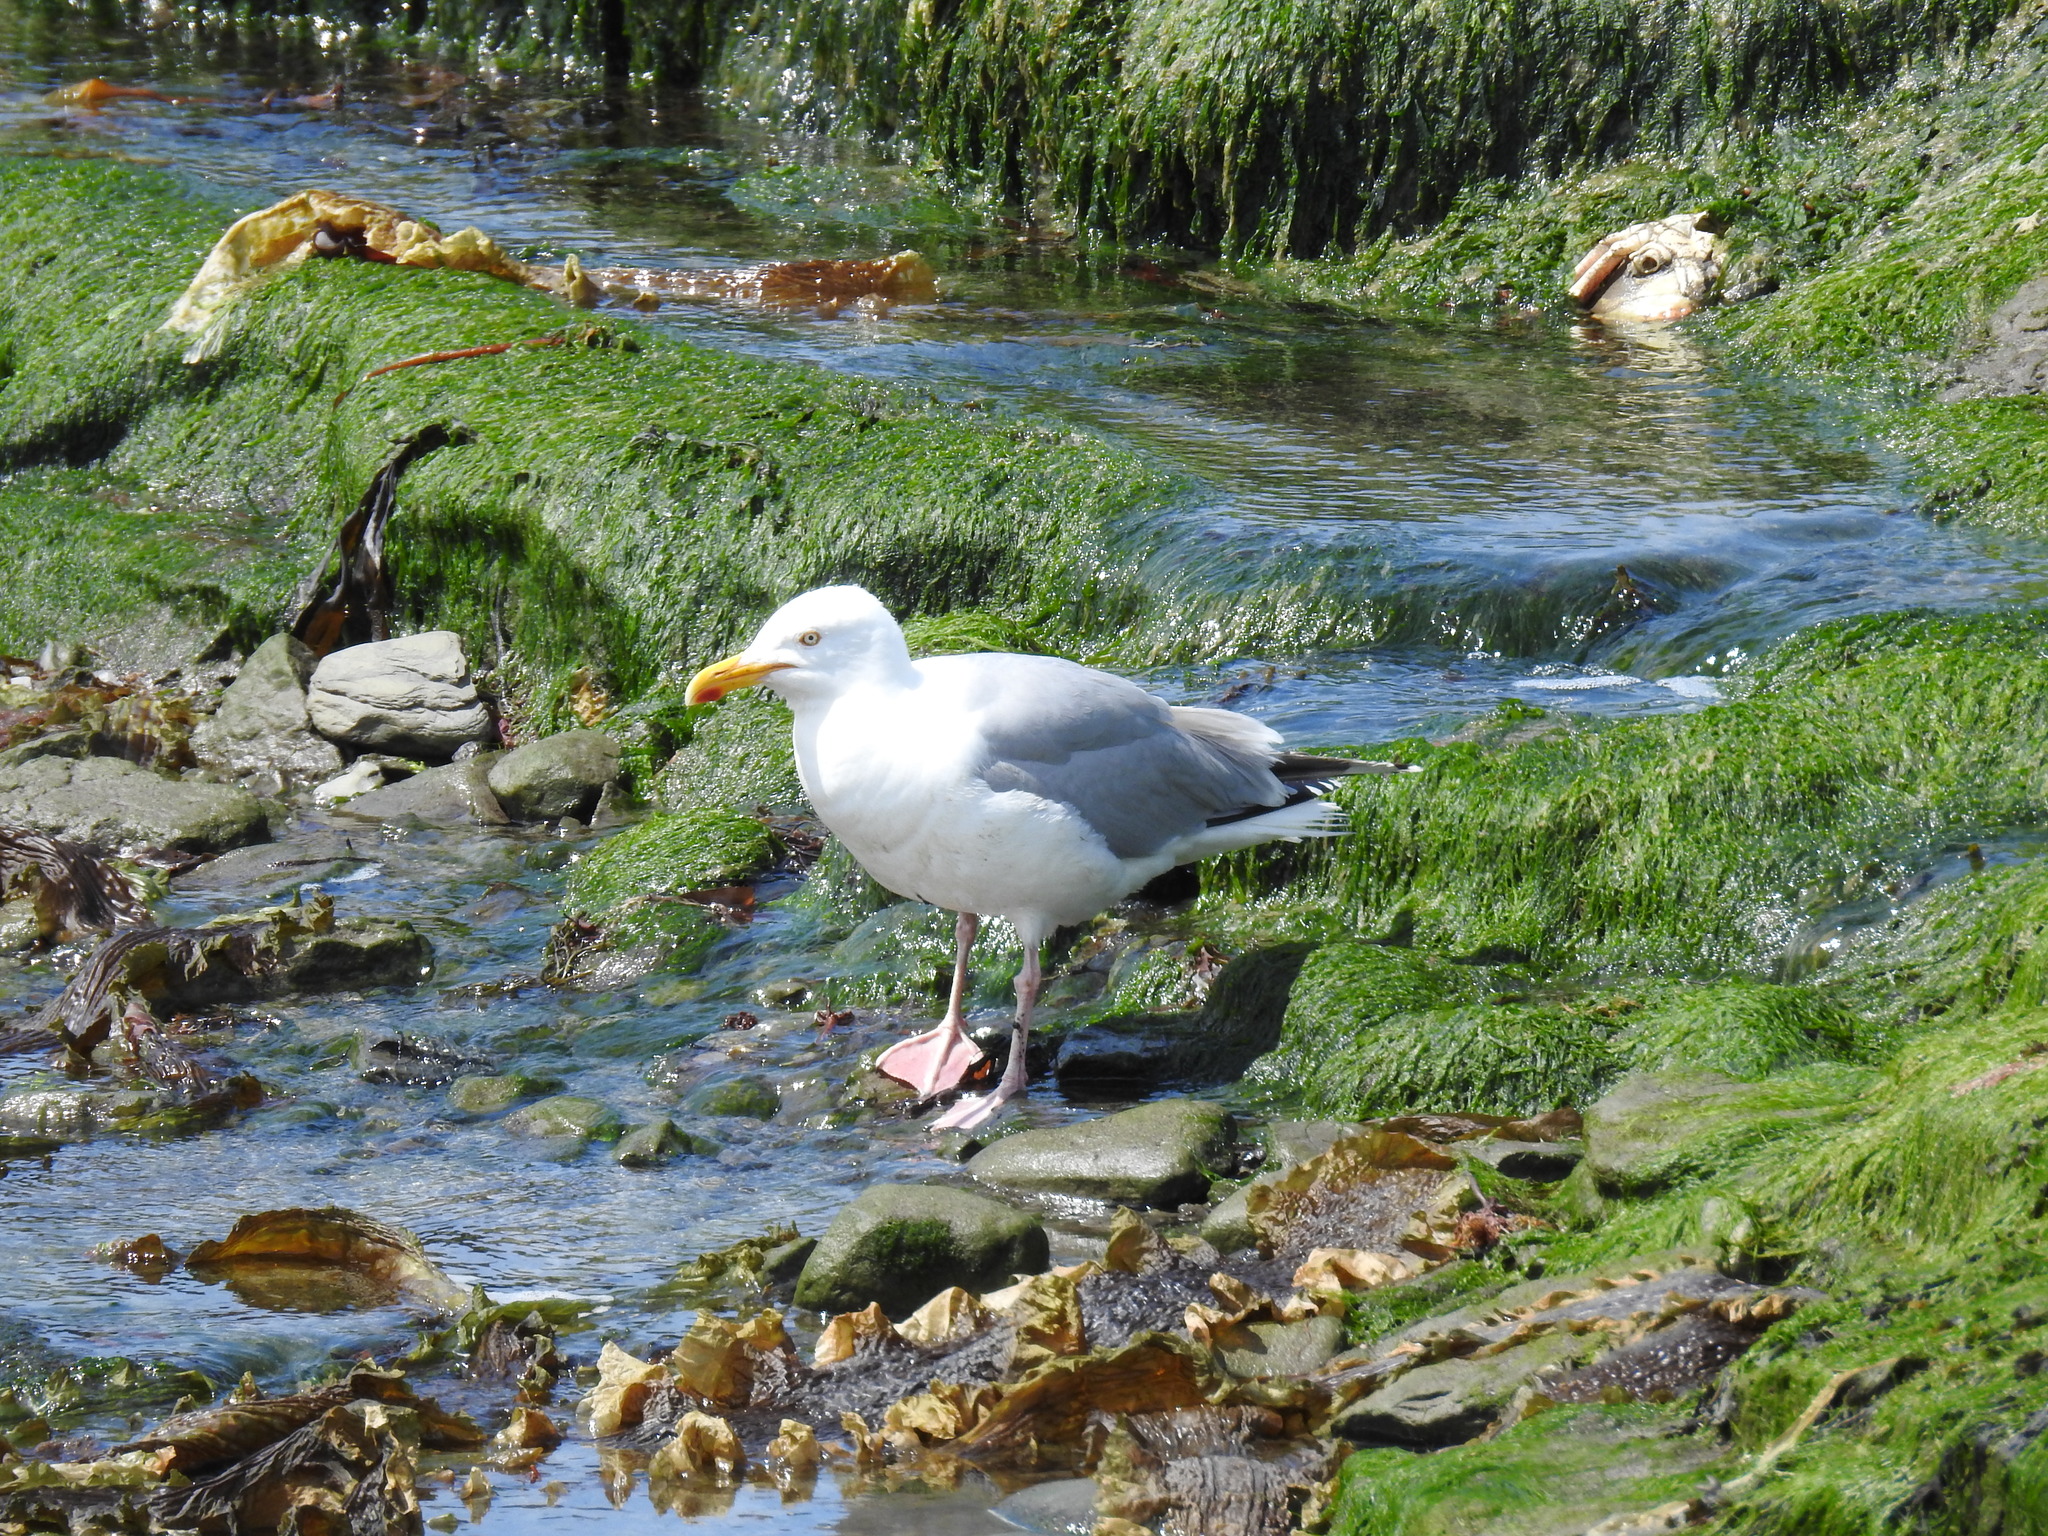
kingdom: Animalia
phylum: Chordata
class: Aves
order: Charadriiformes
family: Laridae
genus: Larus
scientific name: Larus argentatus
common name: Herring gull
